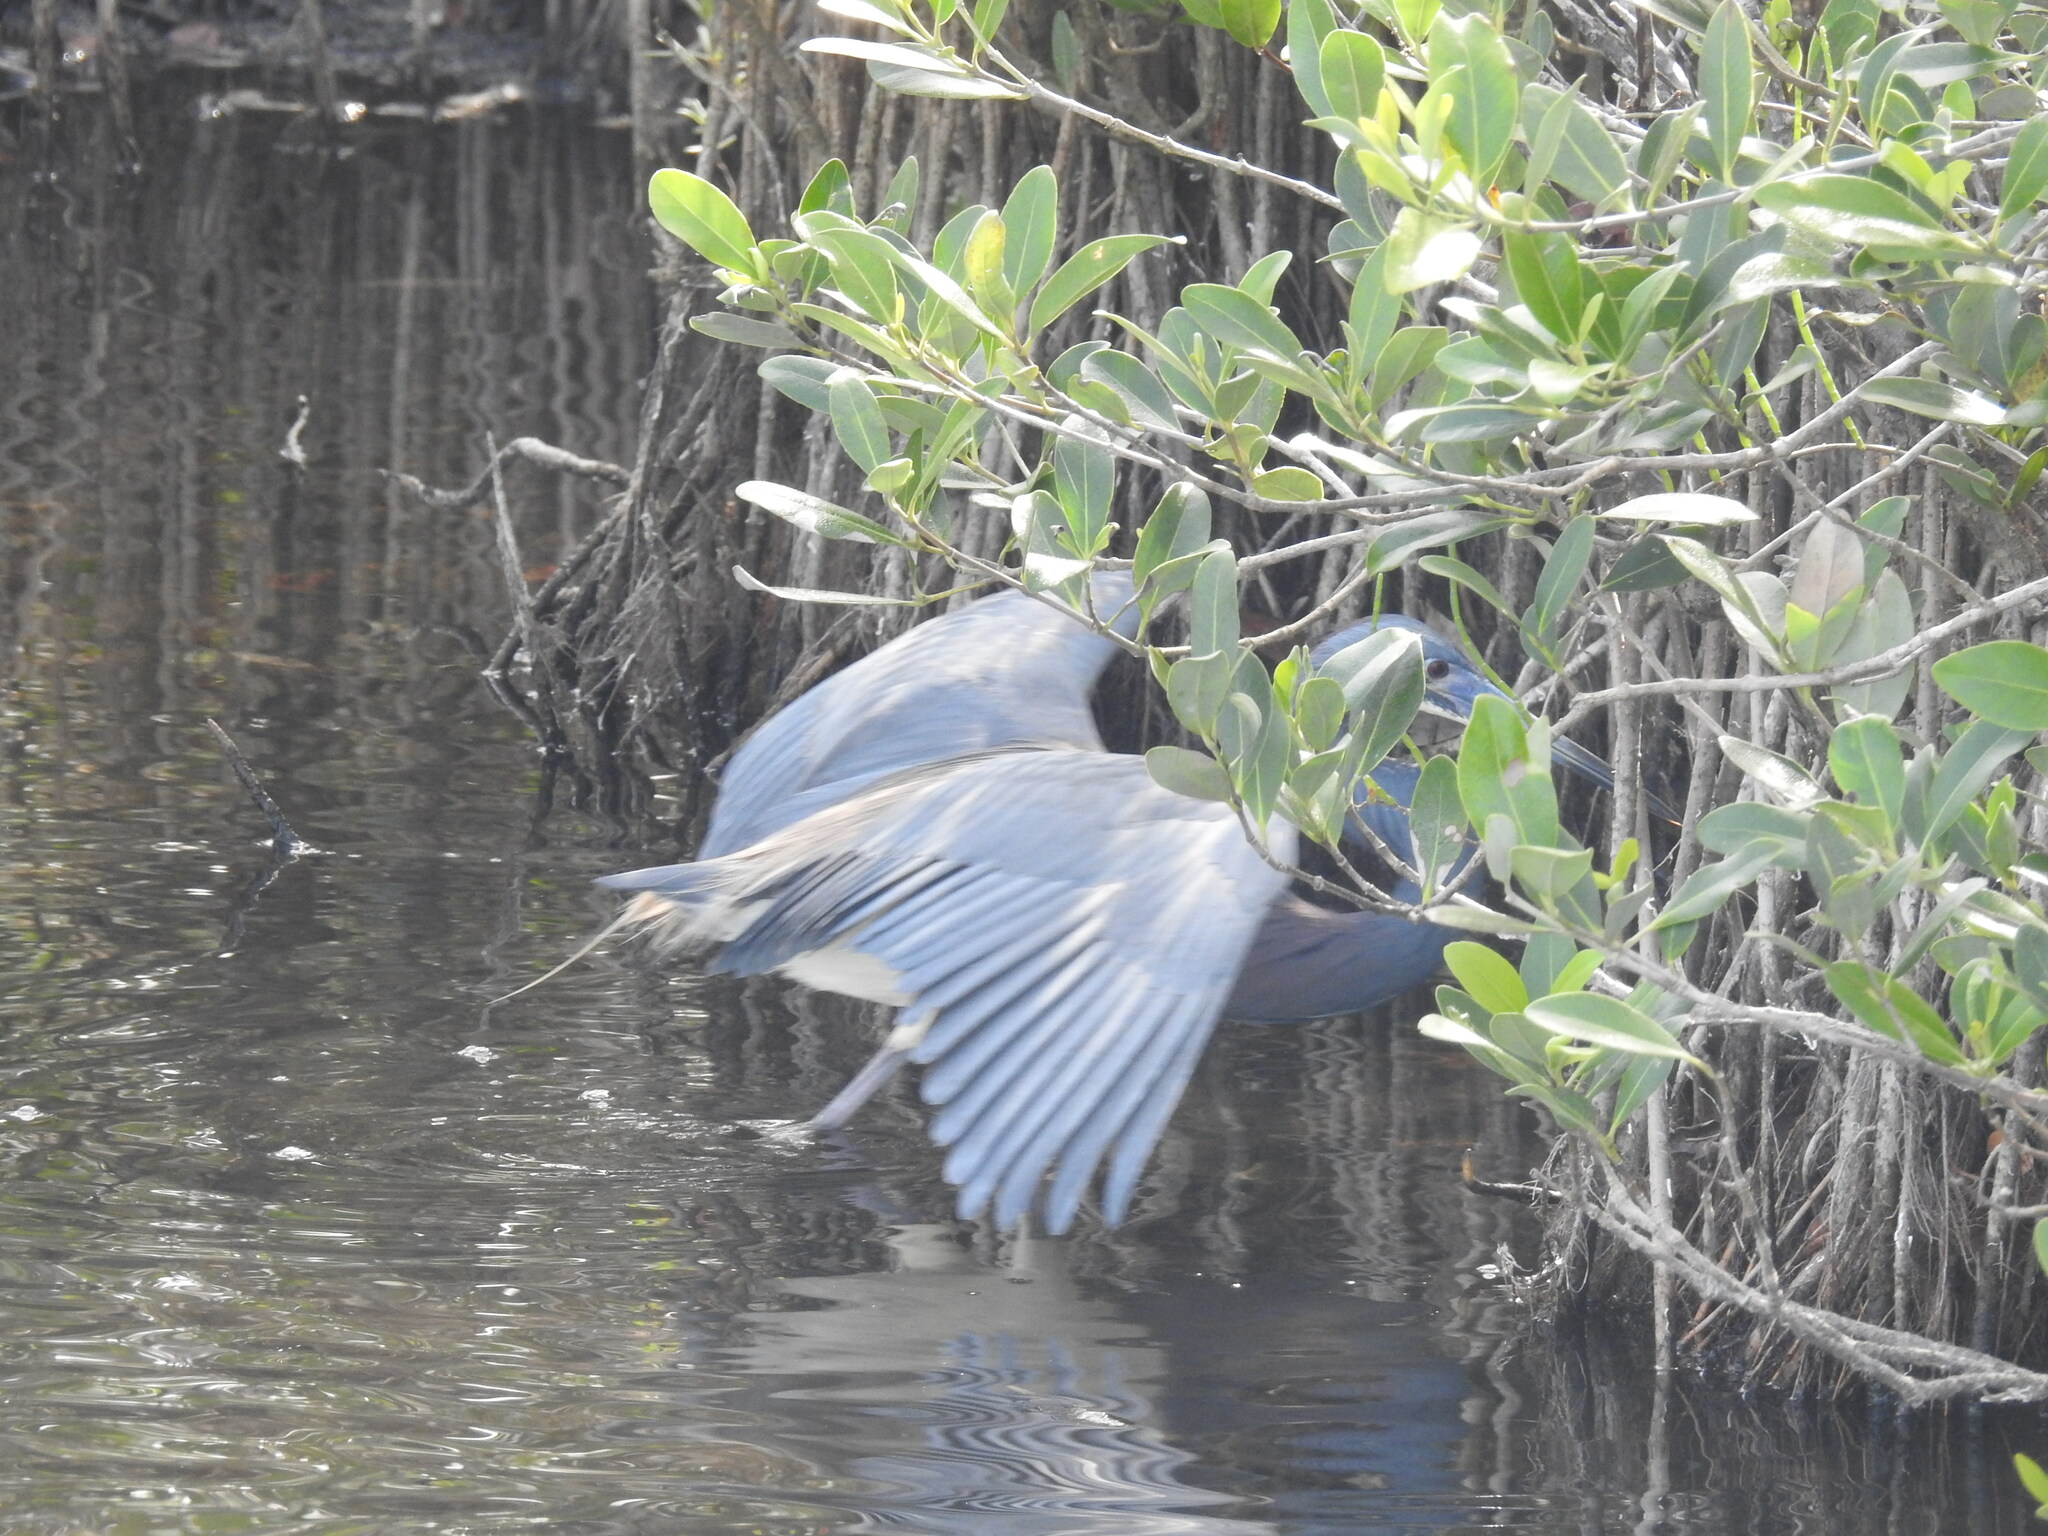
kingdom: Animalia
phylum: Chordata
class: Aves
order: Pelecaniformes
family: Ardeidae
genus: Egretta
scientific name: Egretta tricolor
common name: Tricolored heron
